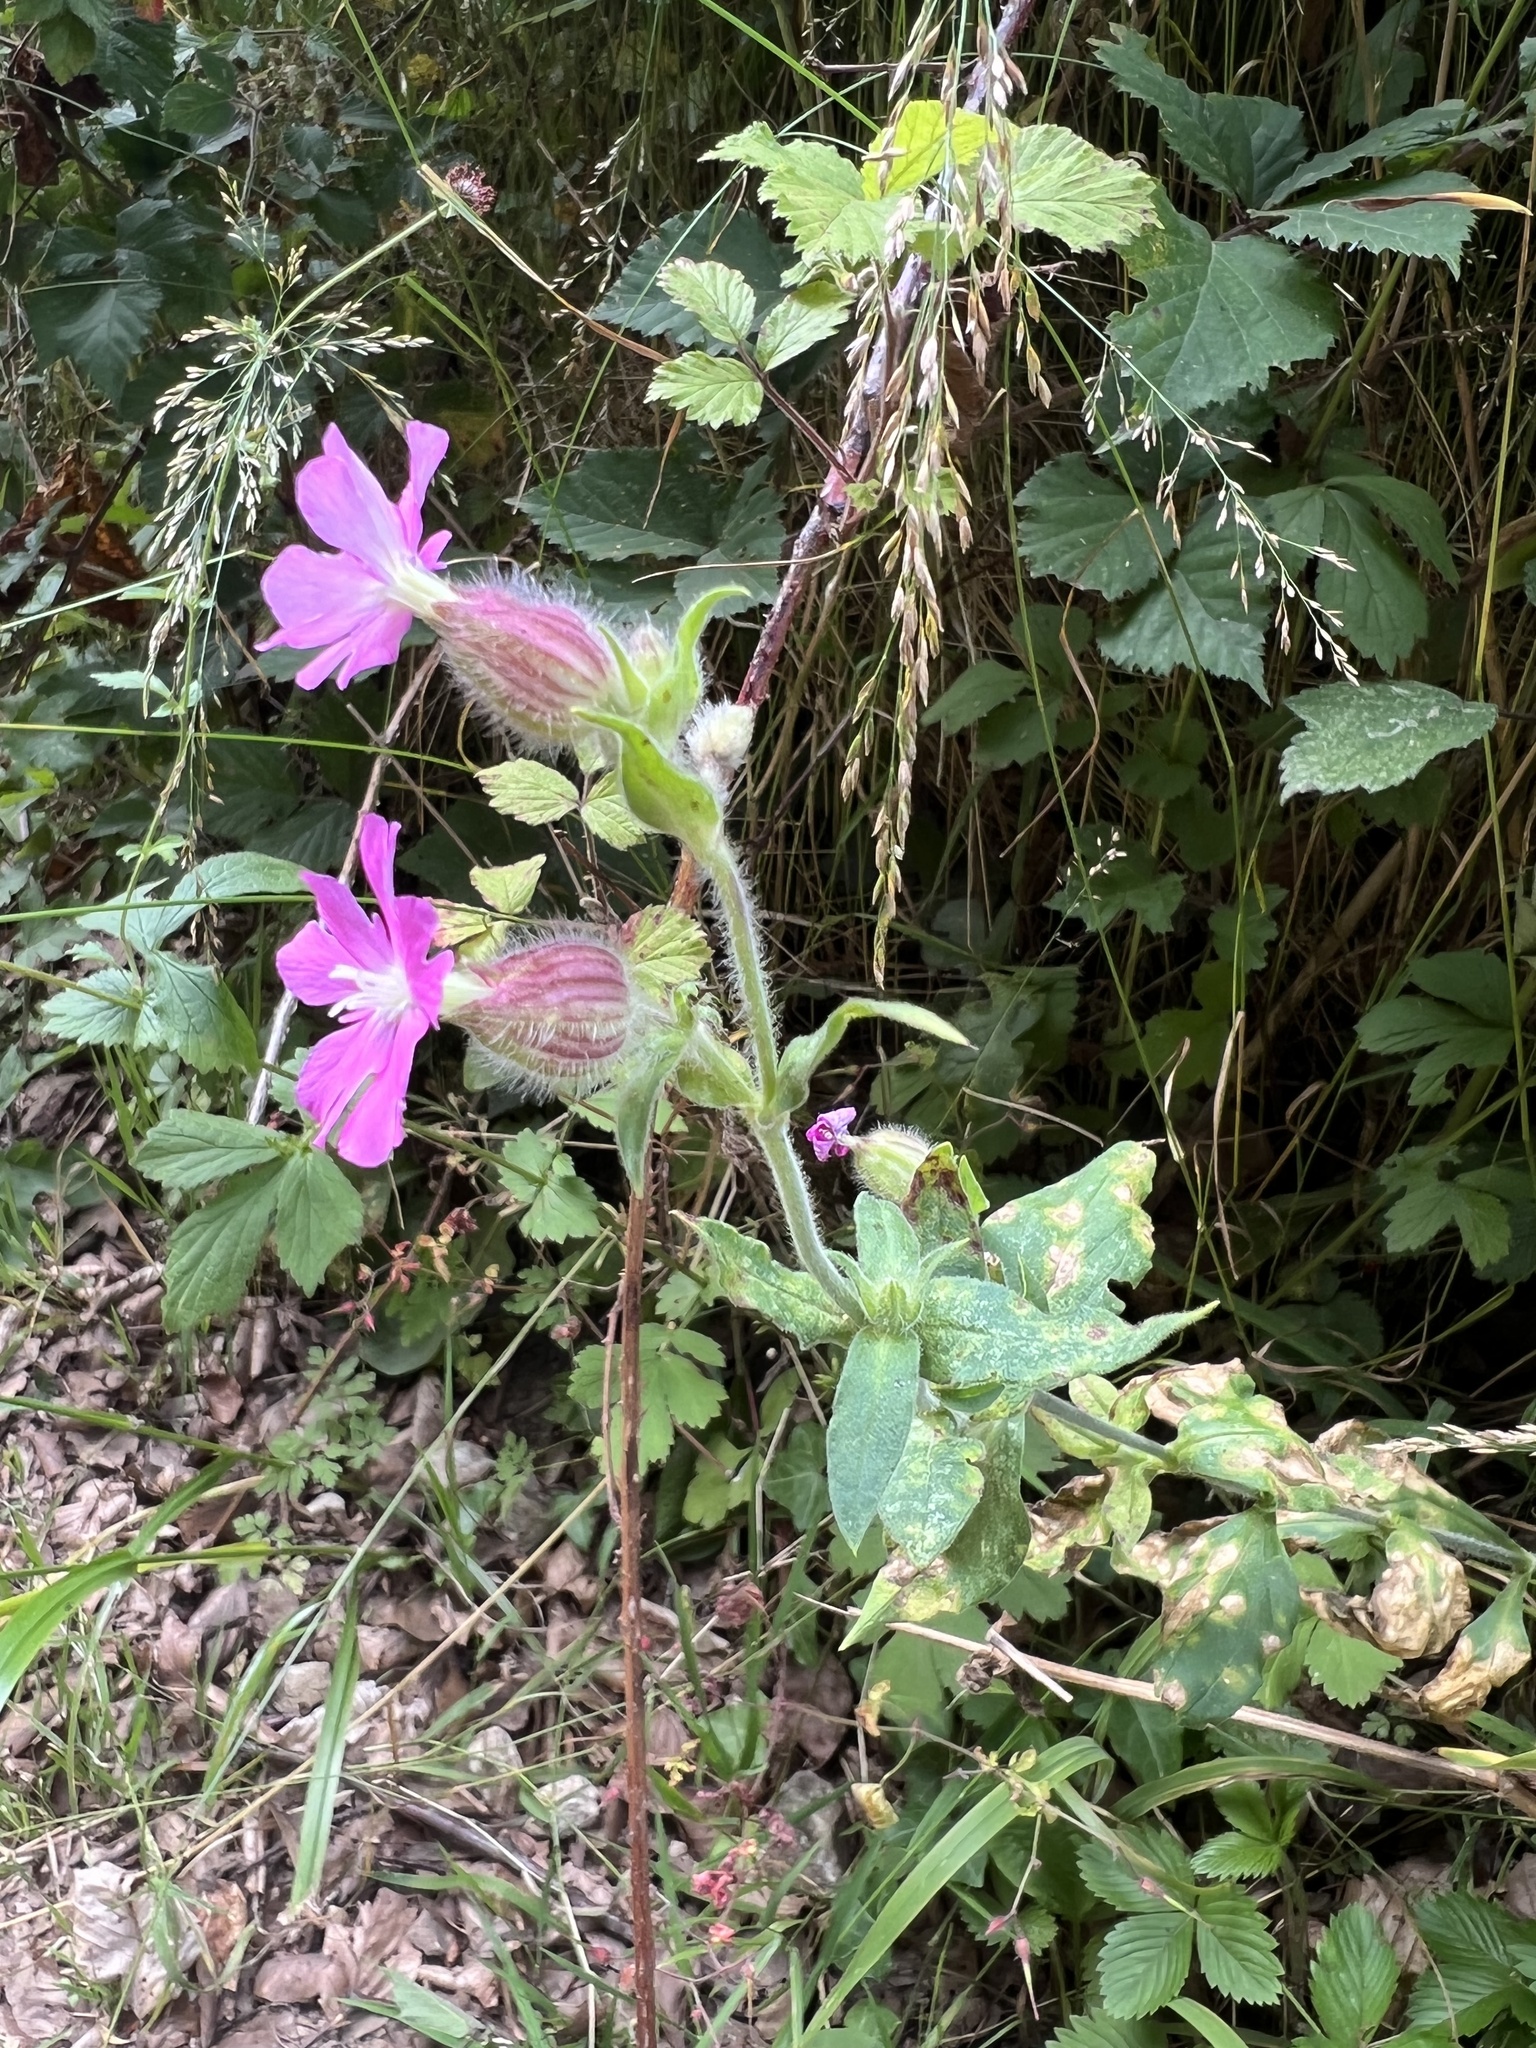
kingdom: Plantae
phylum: Tracheophyta
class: Magnoliopsida
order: Caryophyllales
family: Caryophyllaceae
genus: Silene
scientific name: Silene dioica
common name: Red campion
